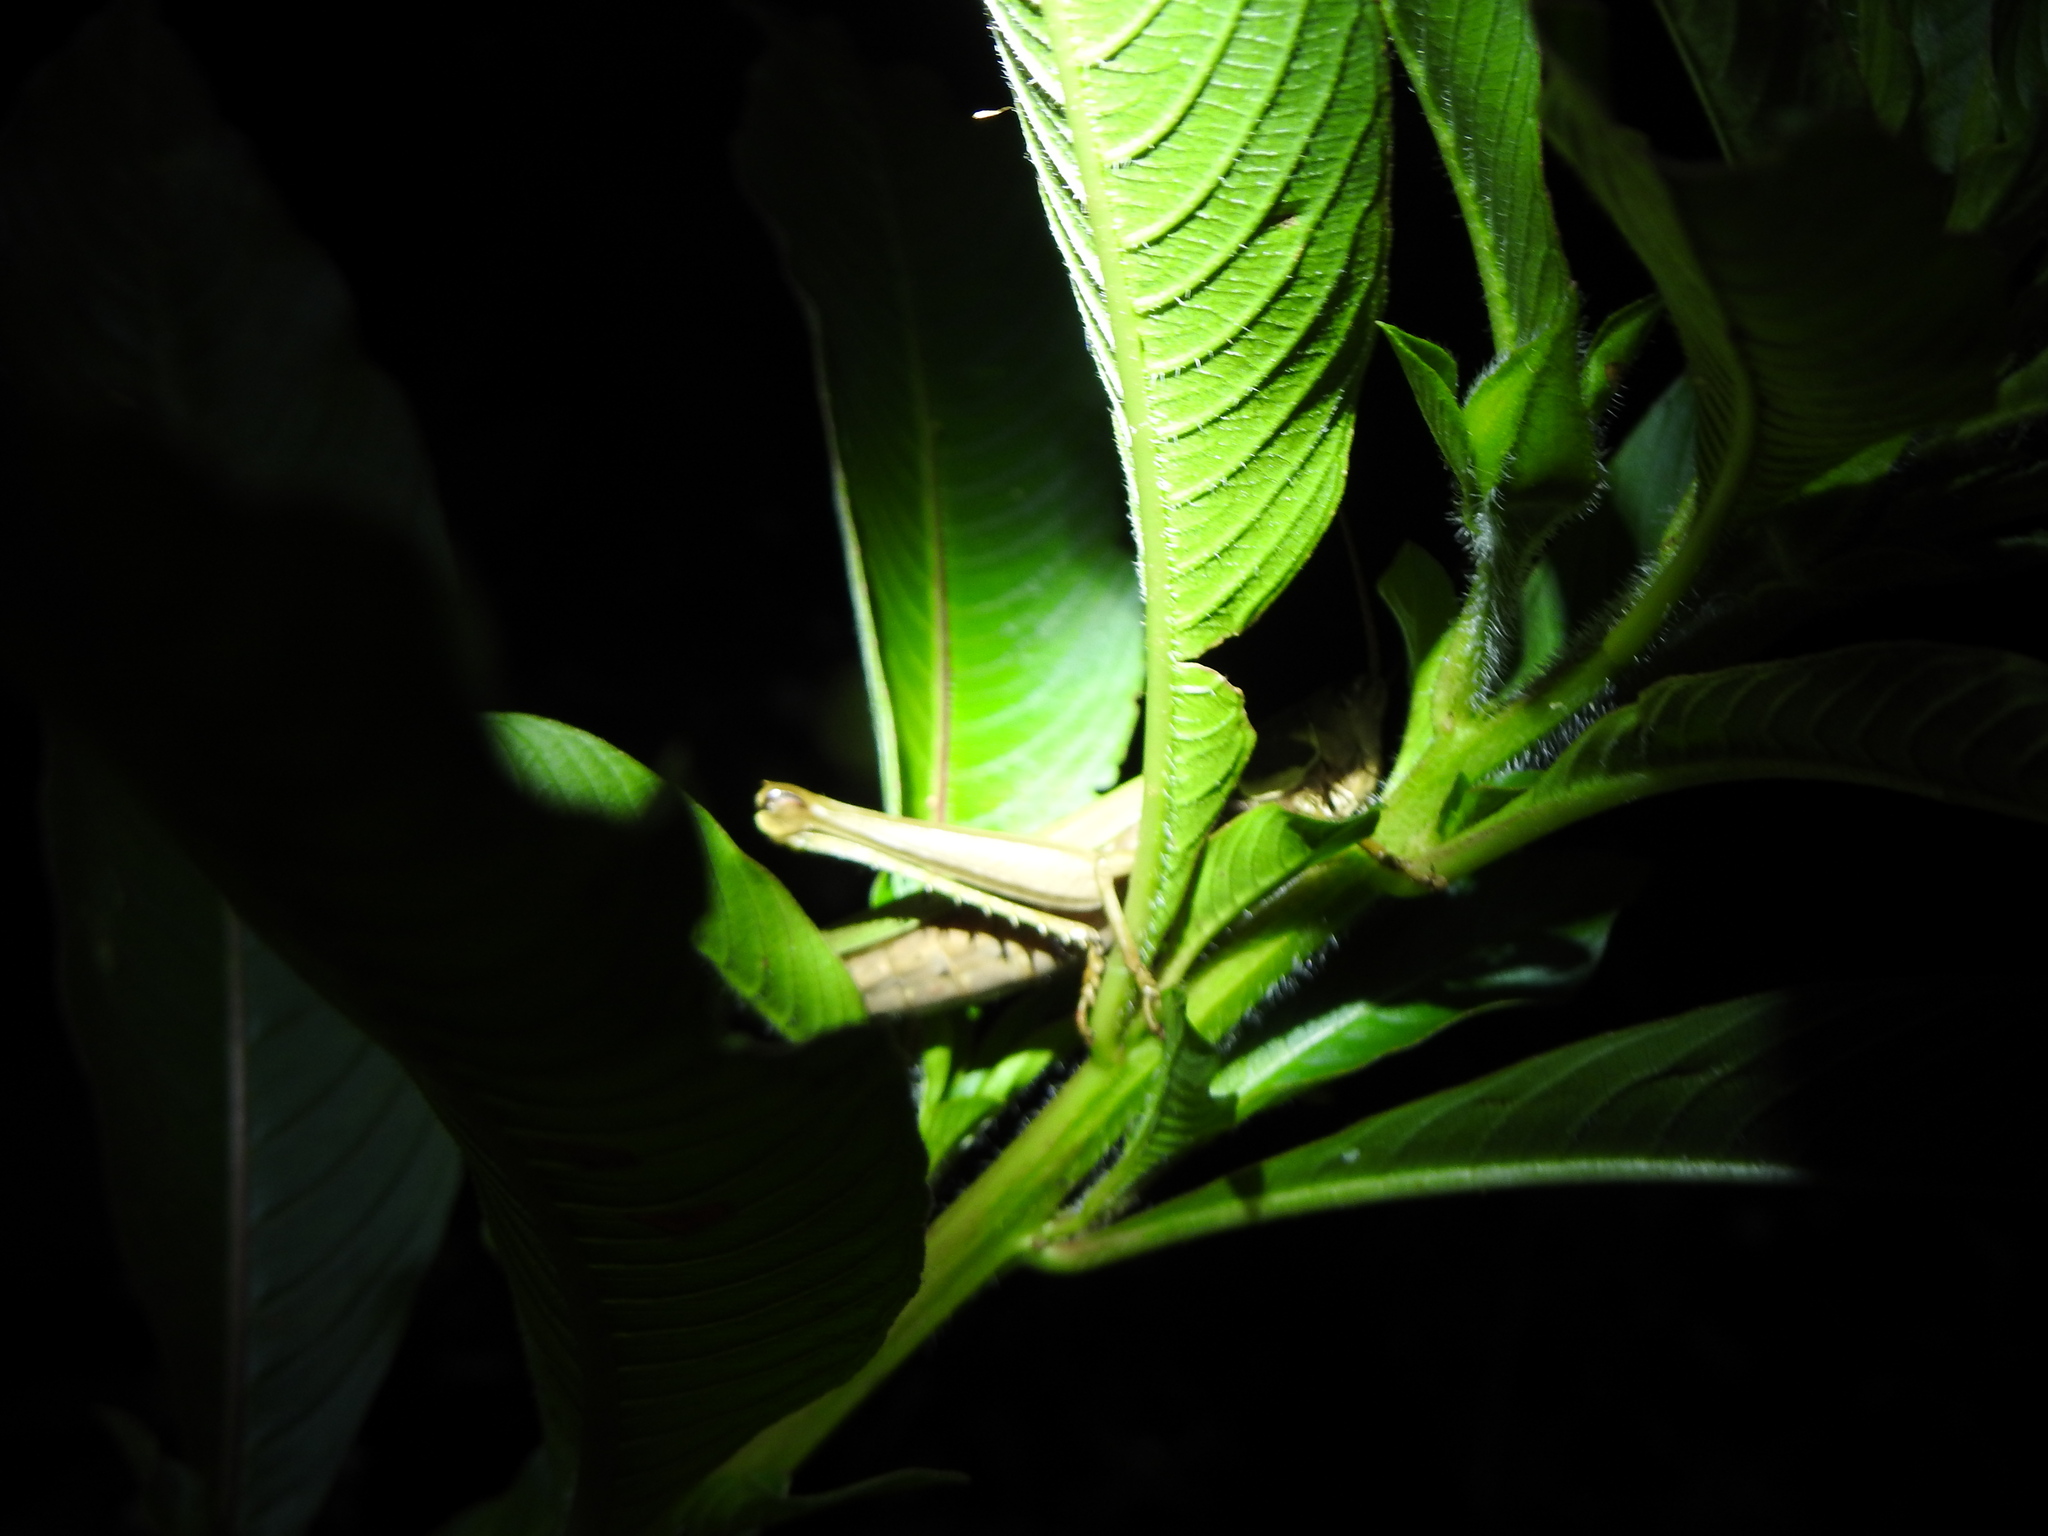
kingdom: Animalia
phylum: Arthropoda
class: Insecta
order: Orthoptera
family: Romaleidae
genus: Coryacris
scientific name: Coryacris angustipennis
